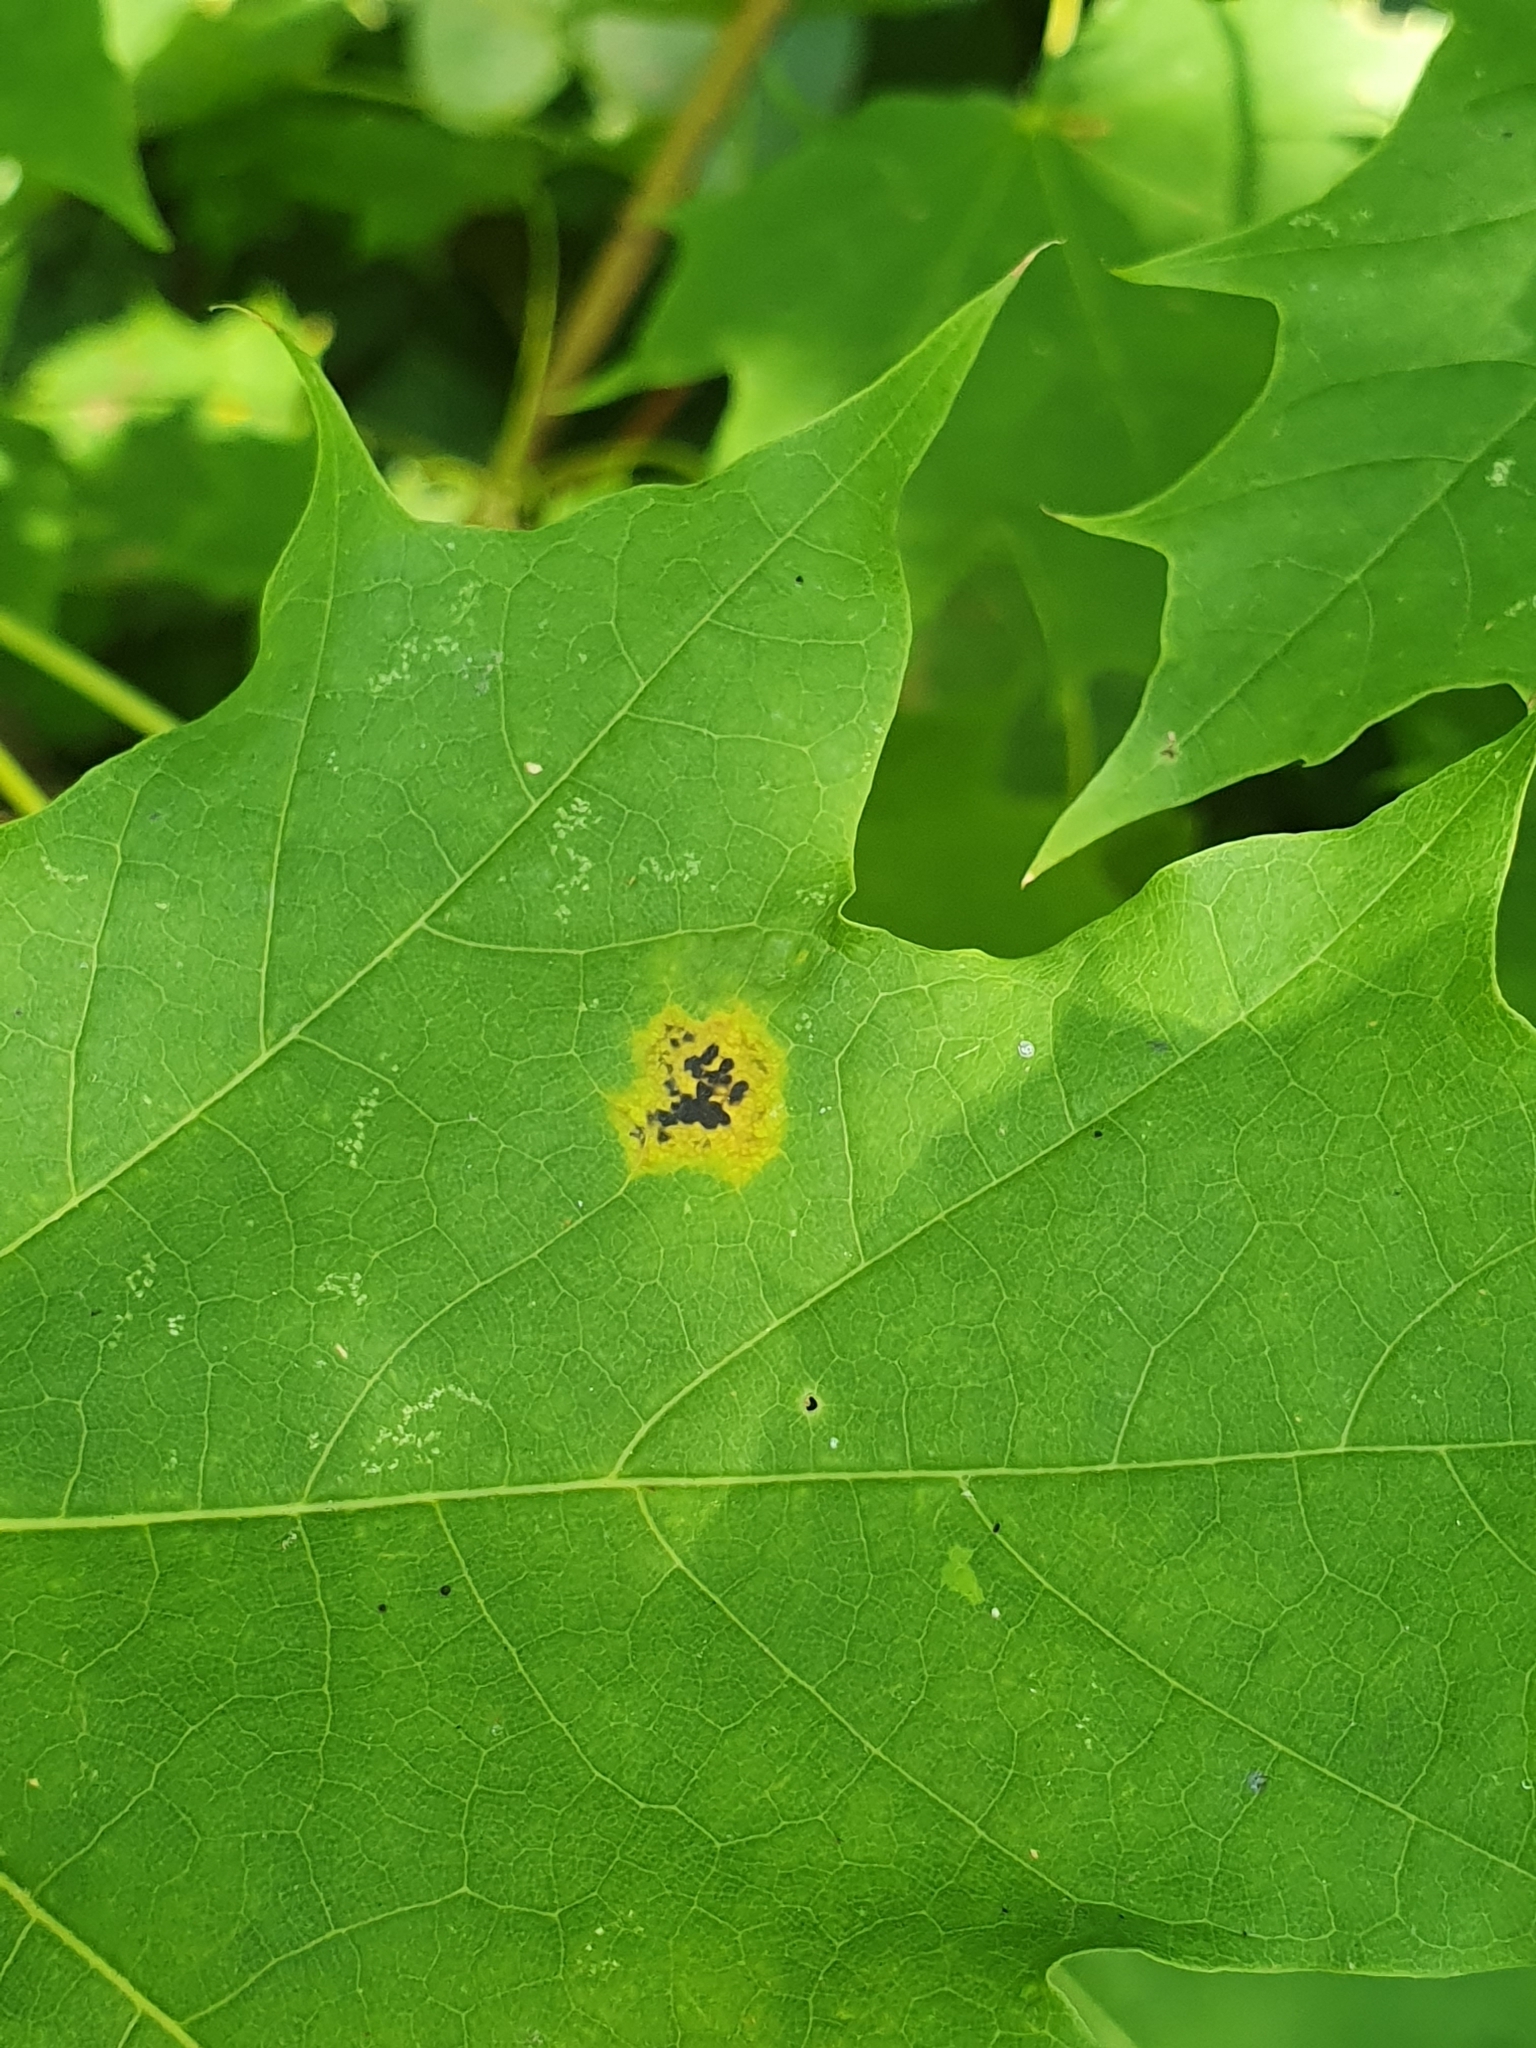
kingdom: Fungi
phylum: Ascomycota
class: Leotiomycetes
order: Rhytismatales
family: Rhytismataceae
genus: Rhytisma
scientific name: Rhytisma acerinum
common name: European tar spot
